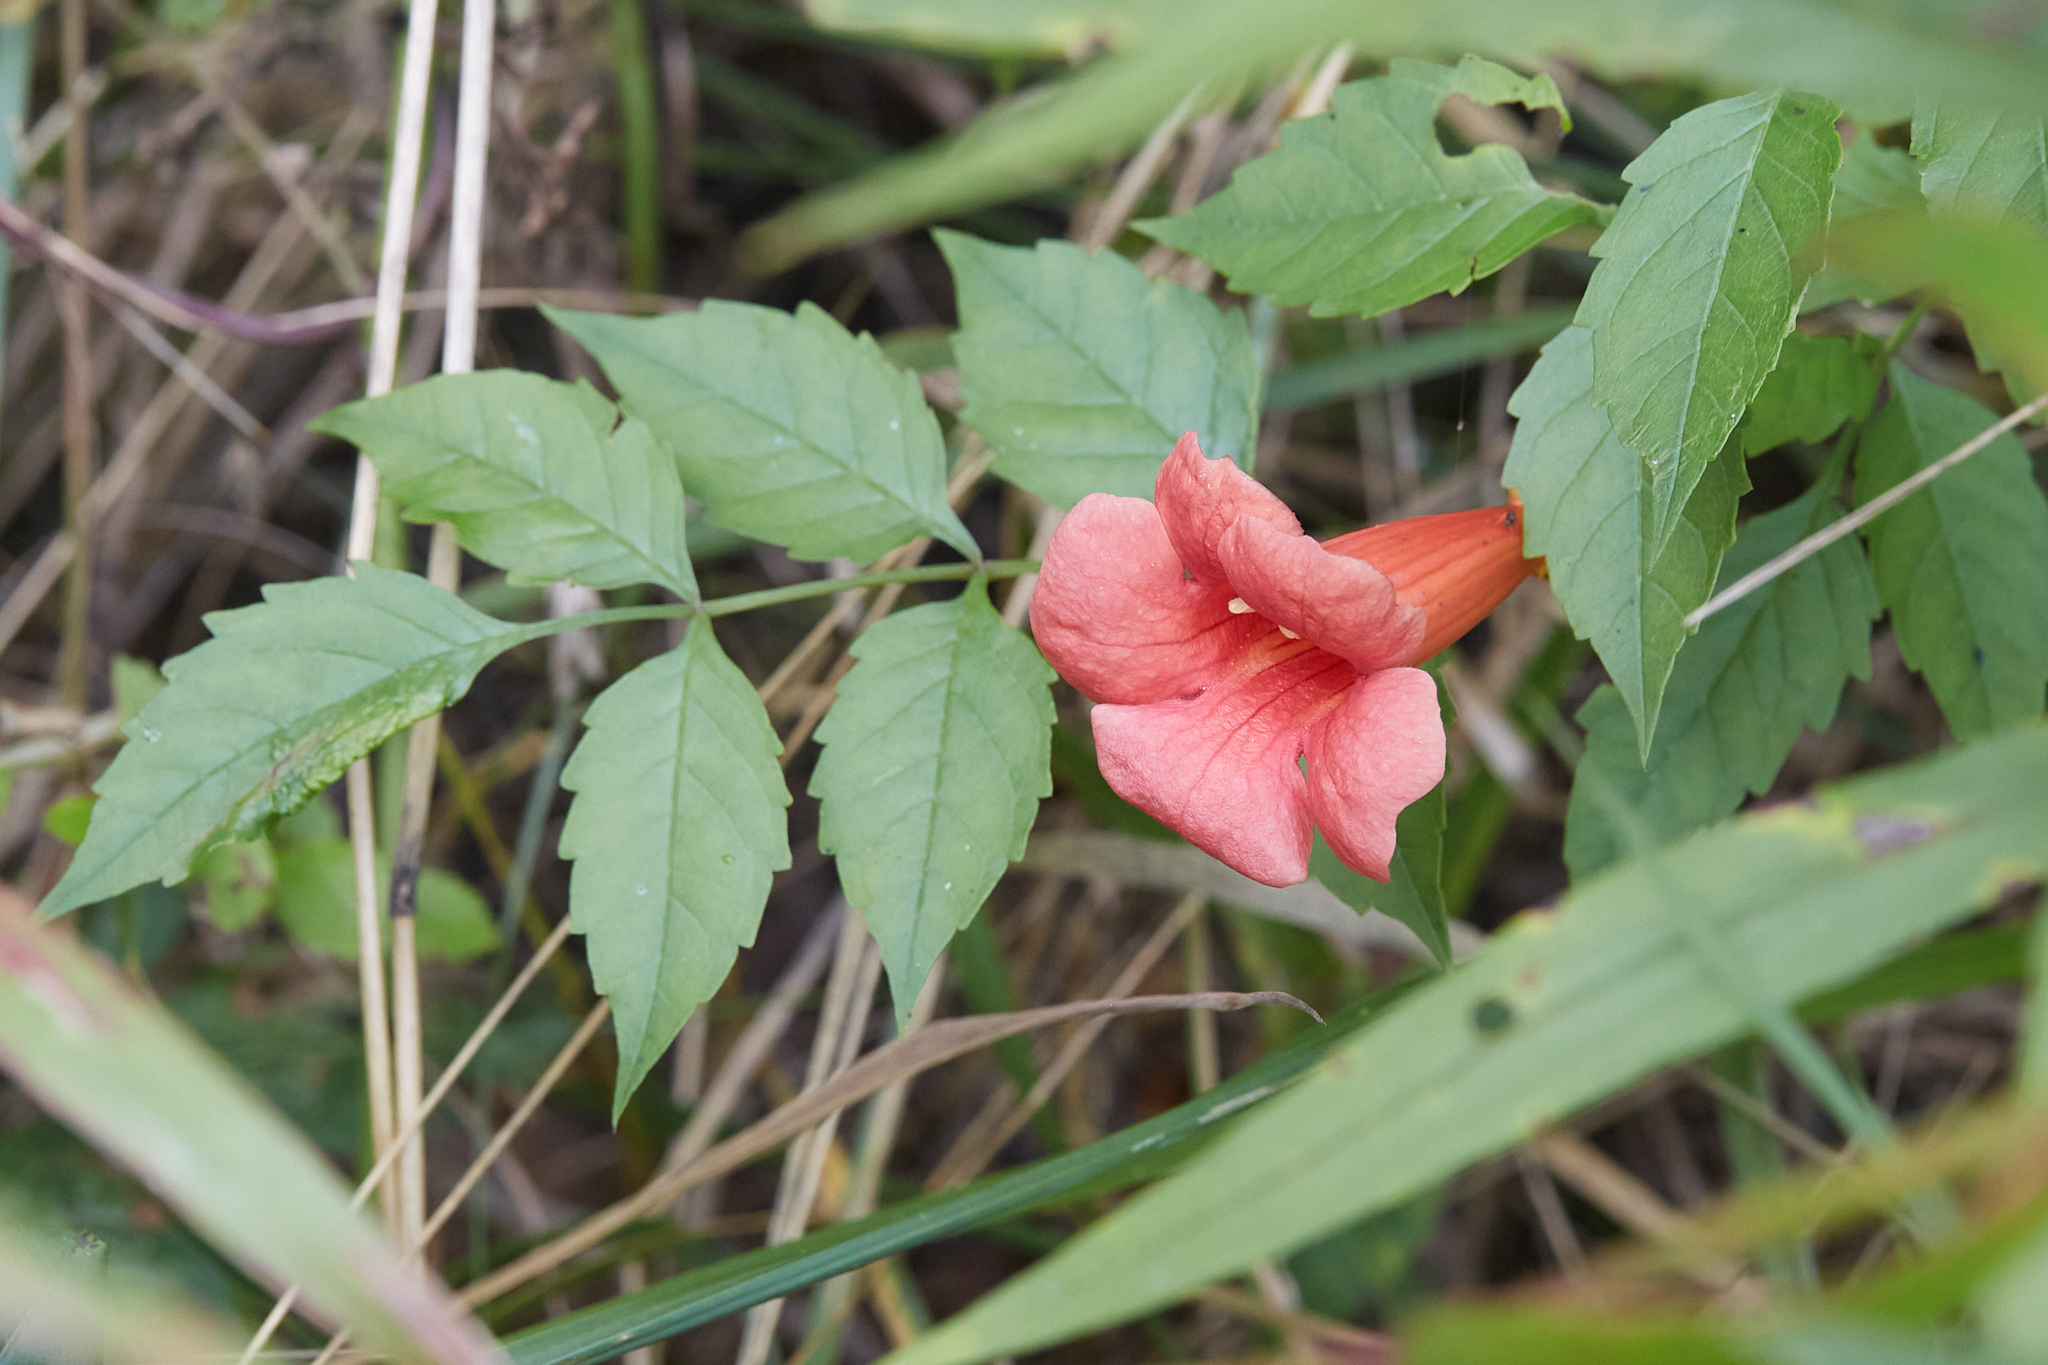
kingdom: Plantae
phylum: Tracheophyta
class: Magnoliopsida
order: Lamiales
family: Bignoniaceae
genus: Campsis
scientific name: Campsis radicans
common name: Trumpet-creeper
